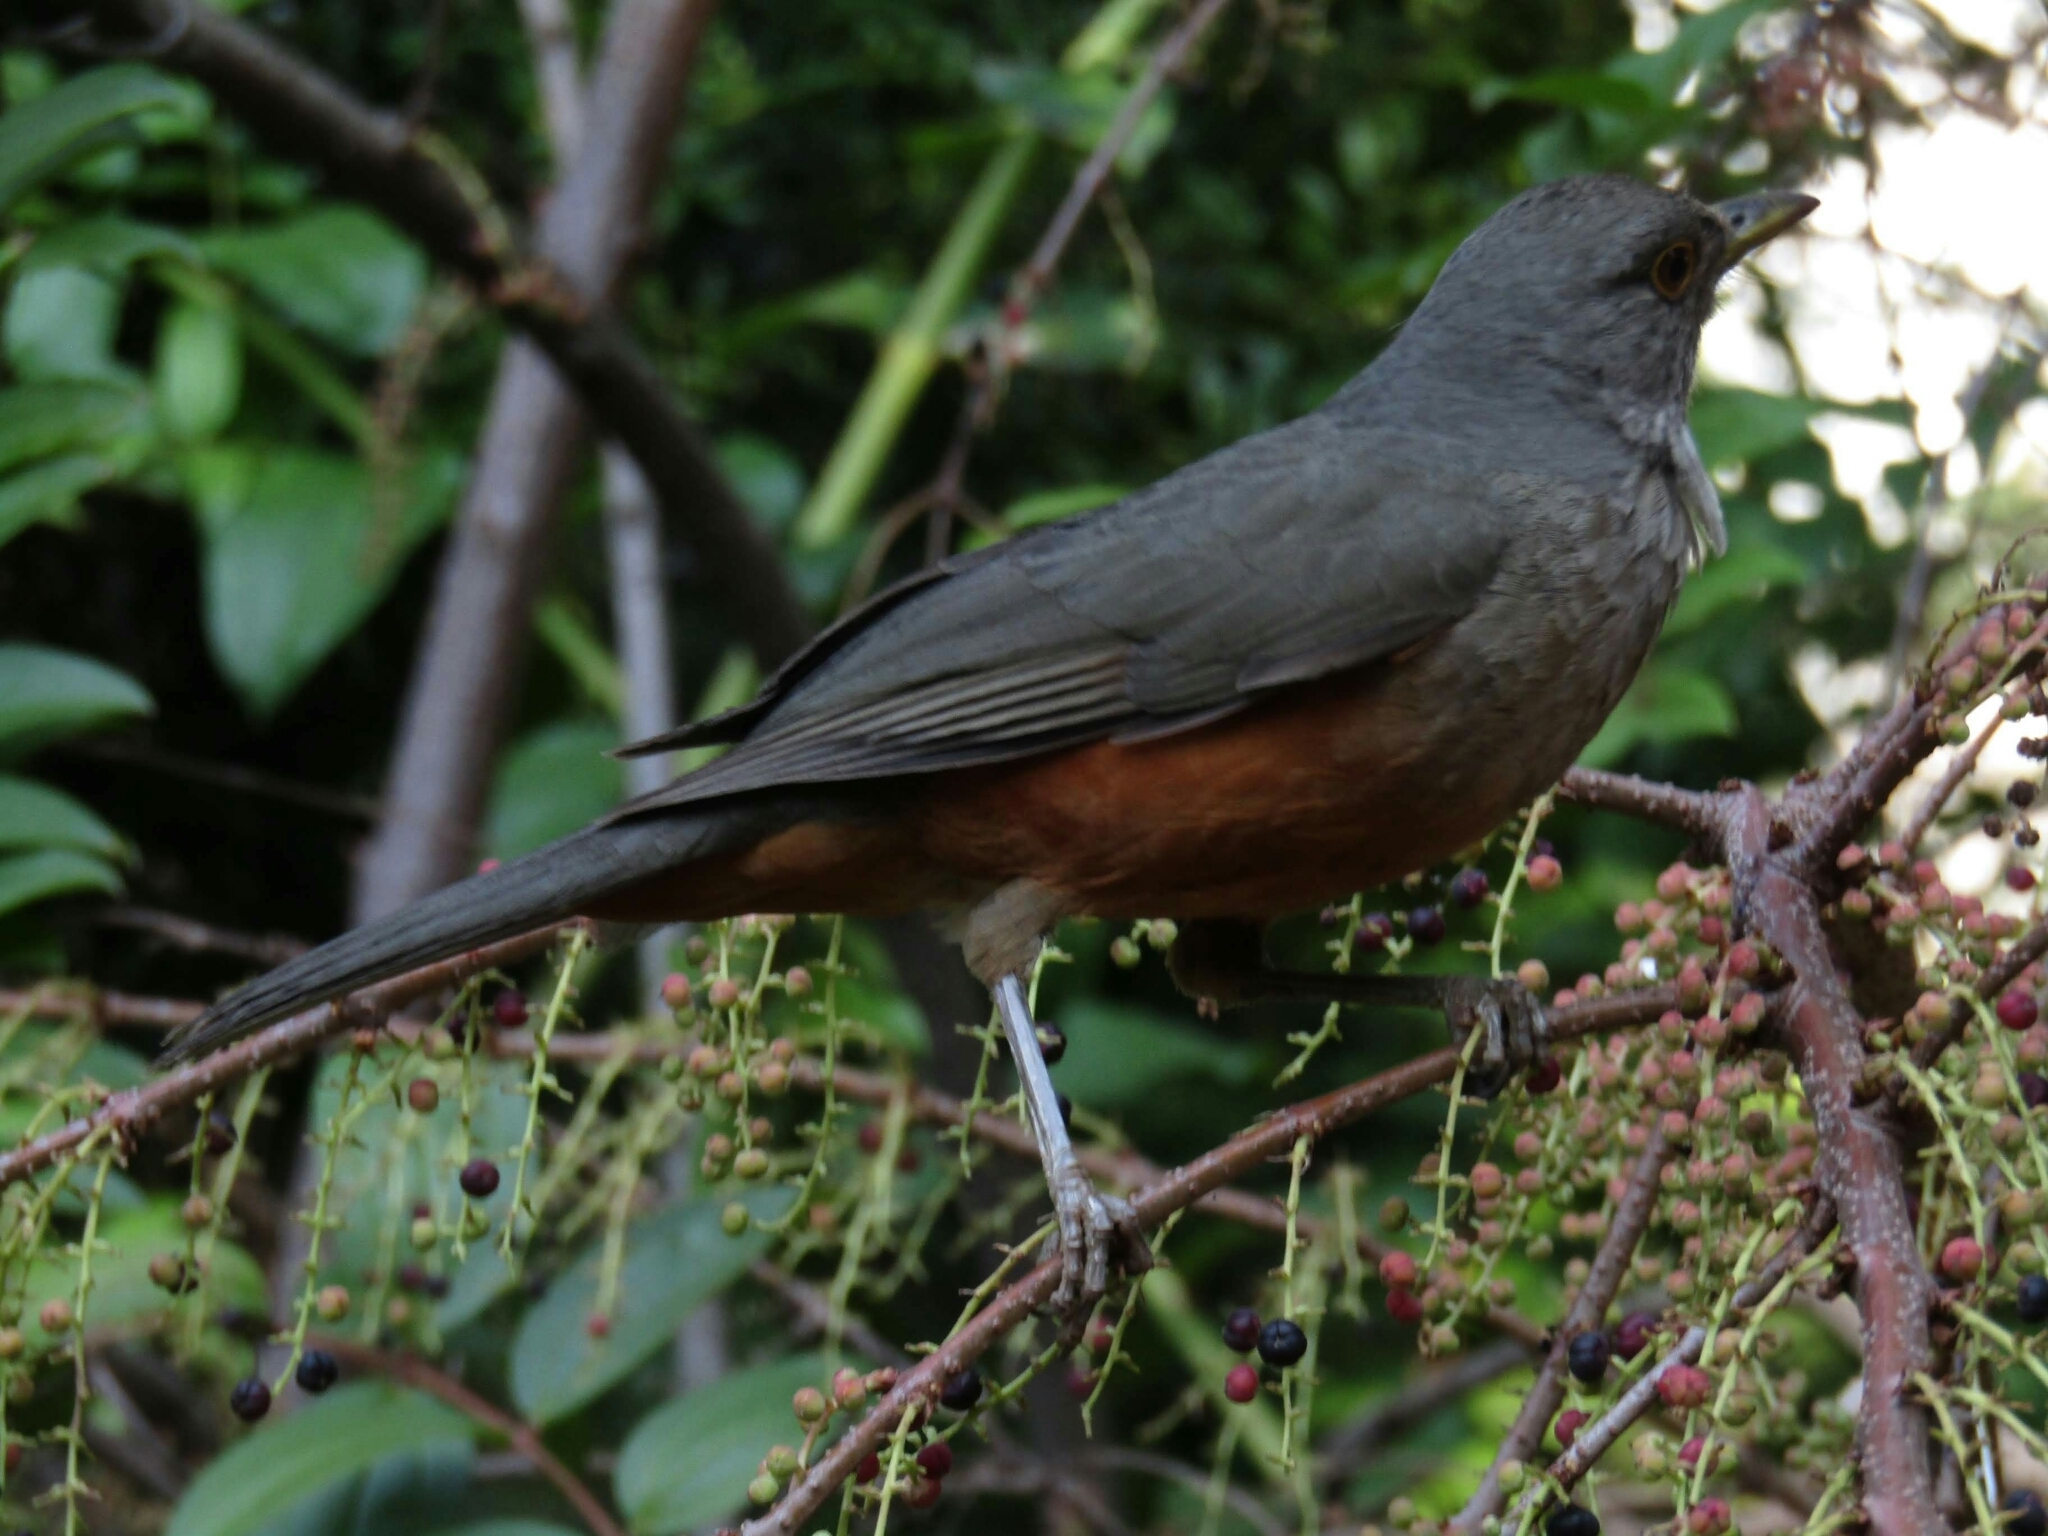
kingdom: Animalia
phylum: Chordata
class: Aves
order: Passeriformes
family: Turdidae
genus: Turdus
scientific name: Turdus rufiventris
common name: Rufous-bellied thrush
